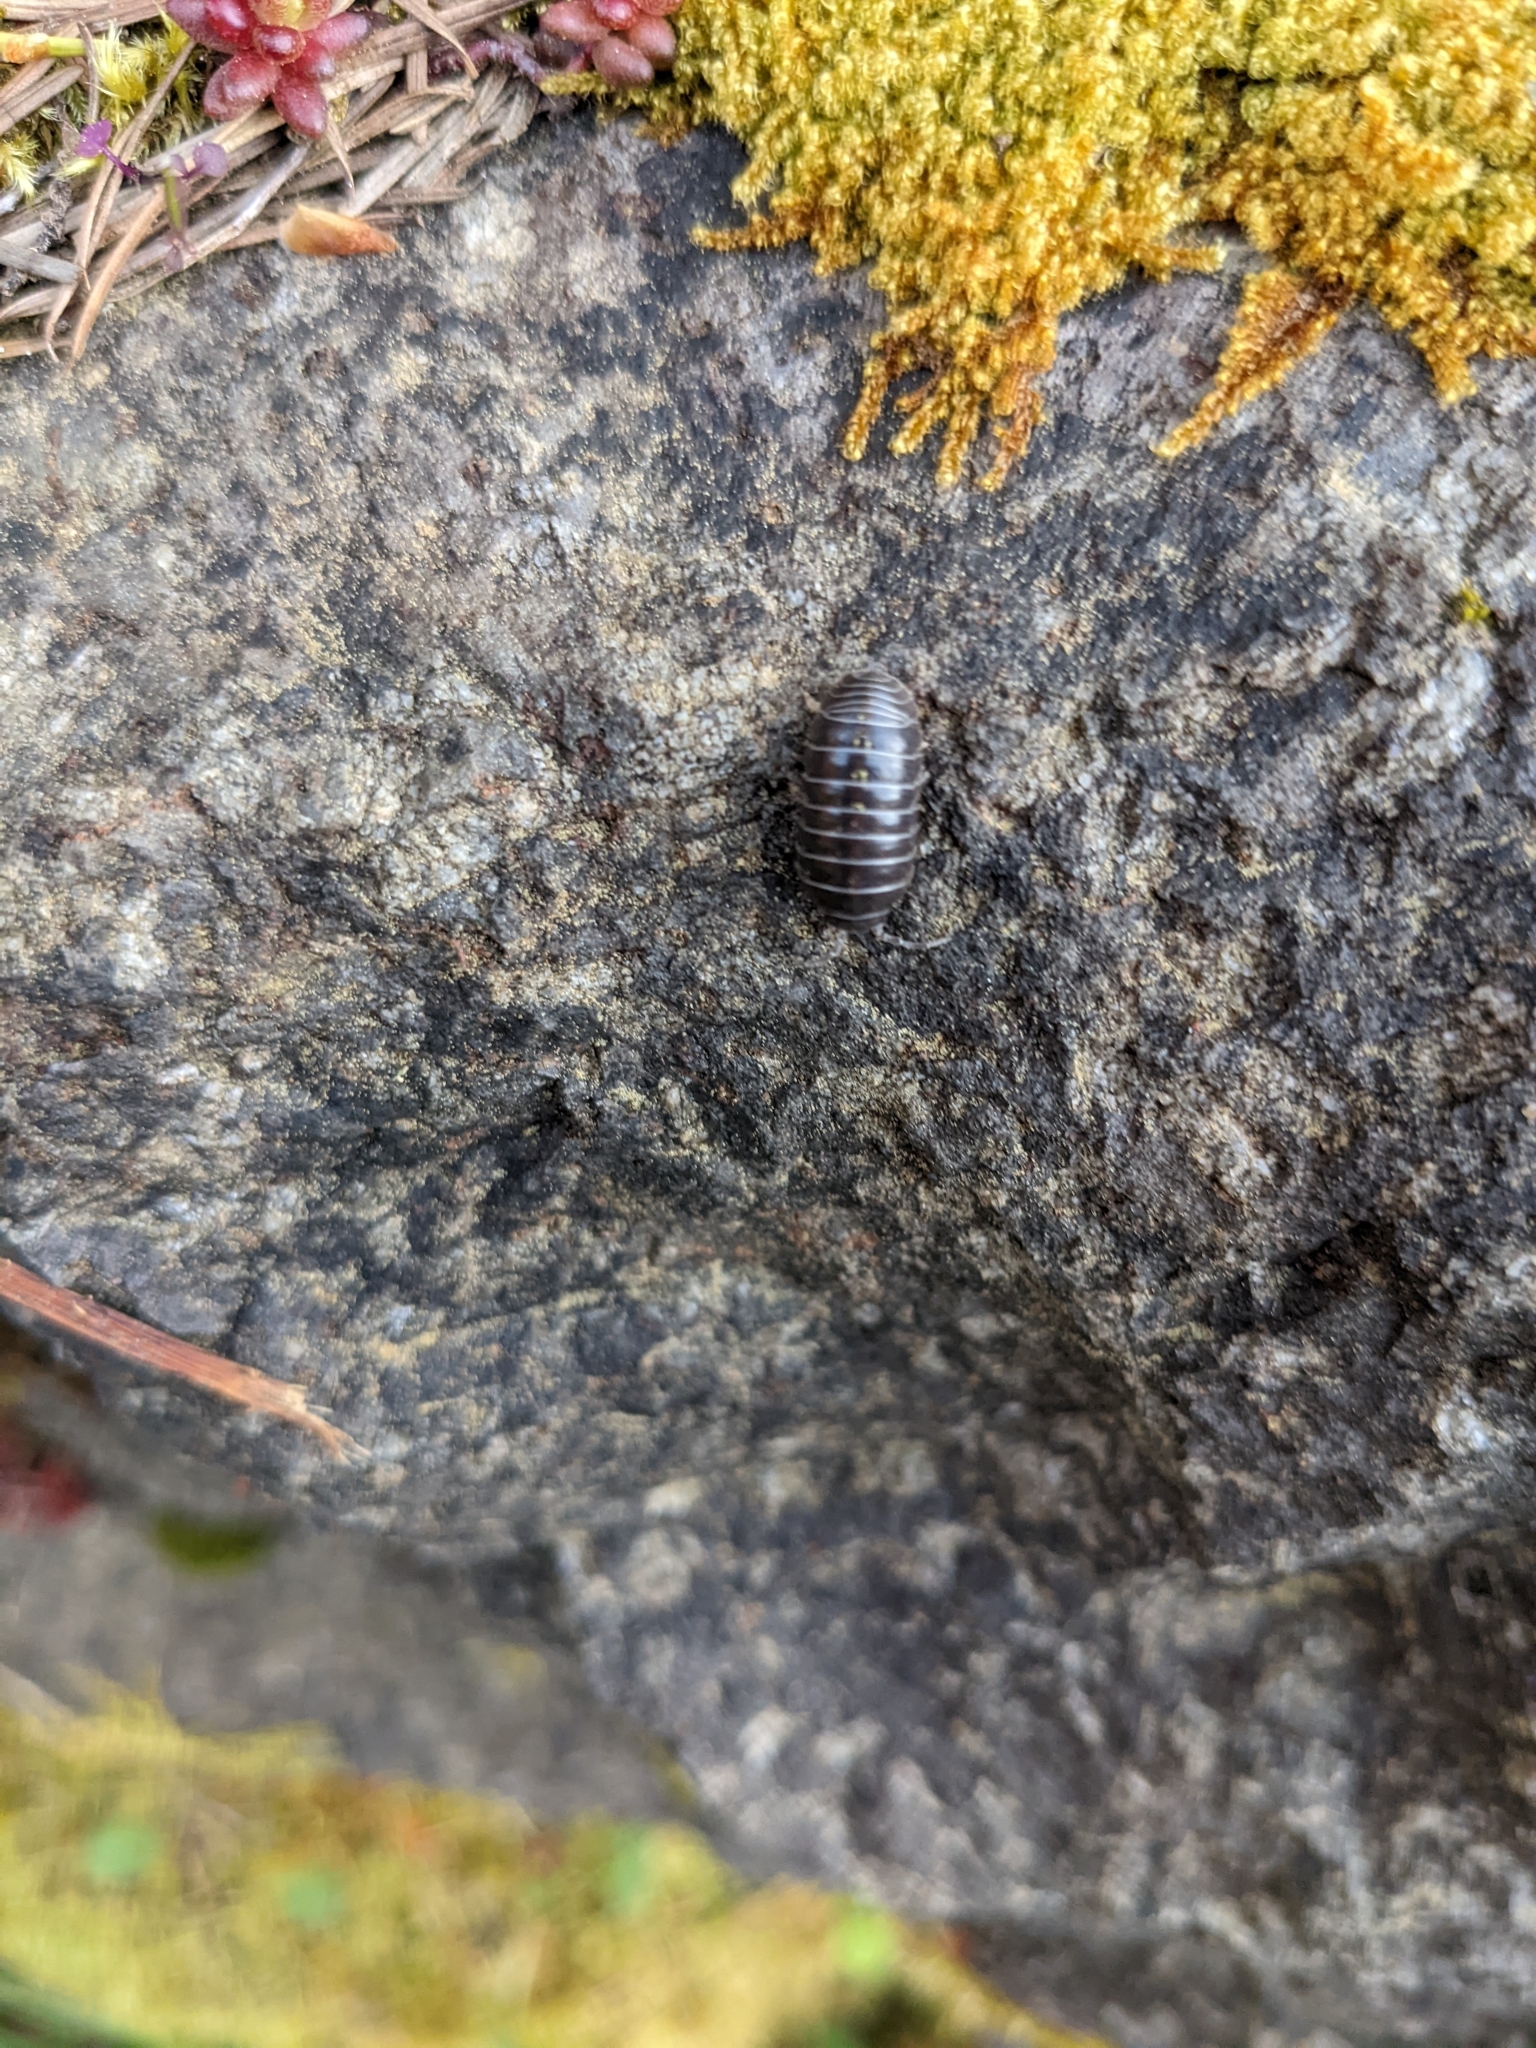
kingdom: Animalia
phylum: Arthropoda
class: Malacostraca
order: Isopoda
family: Armadillidiidae
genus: Armadillidium
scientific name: Armadillidium vulgare
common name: Common pill woodlouse
